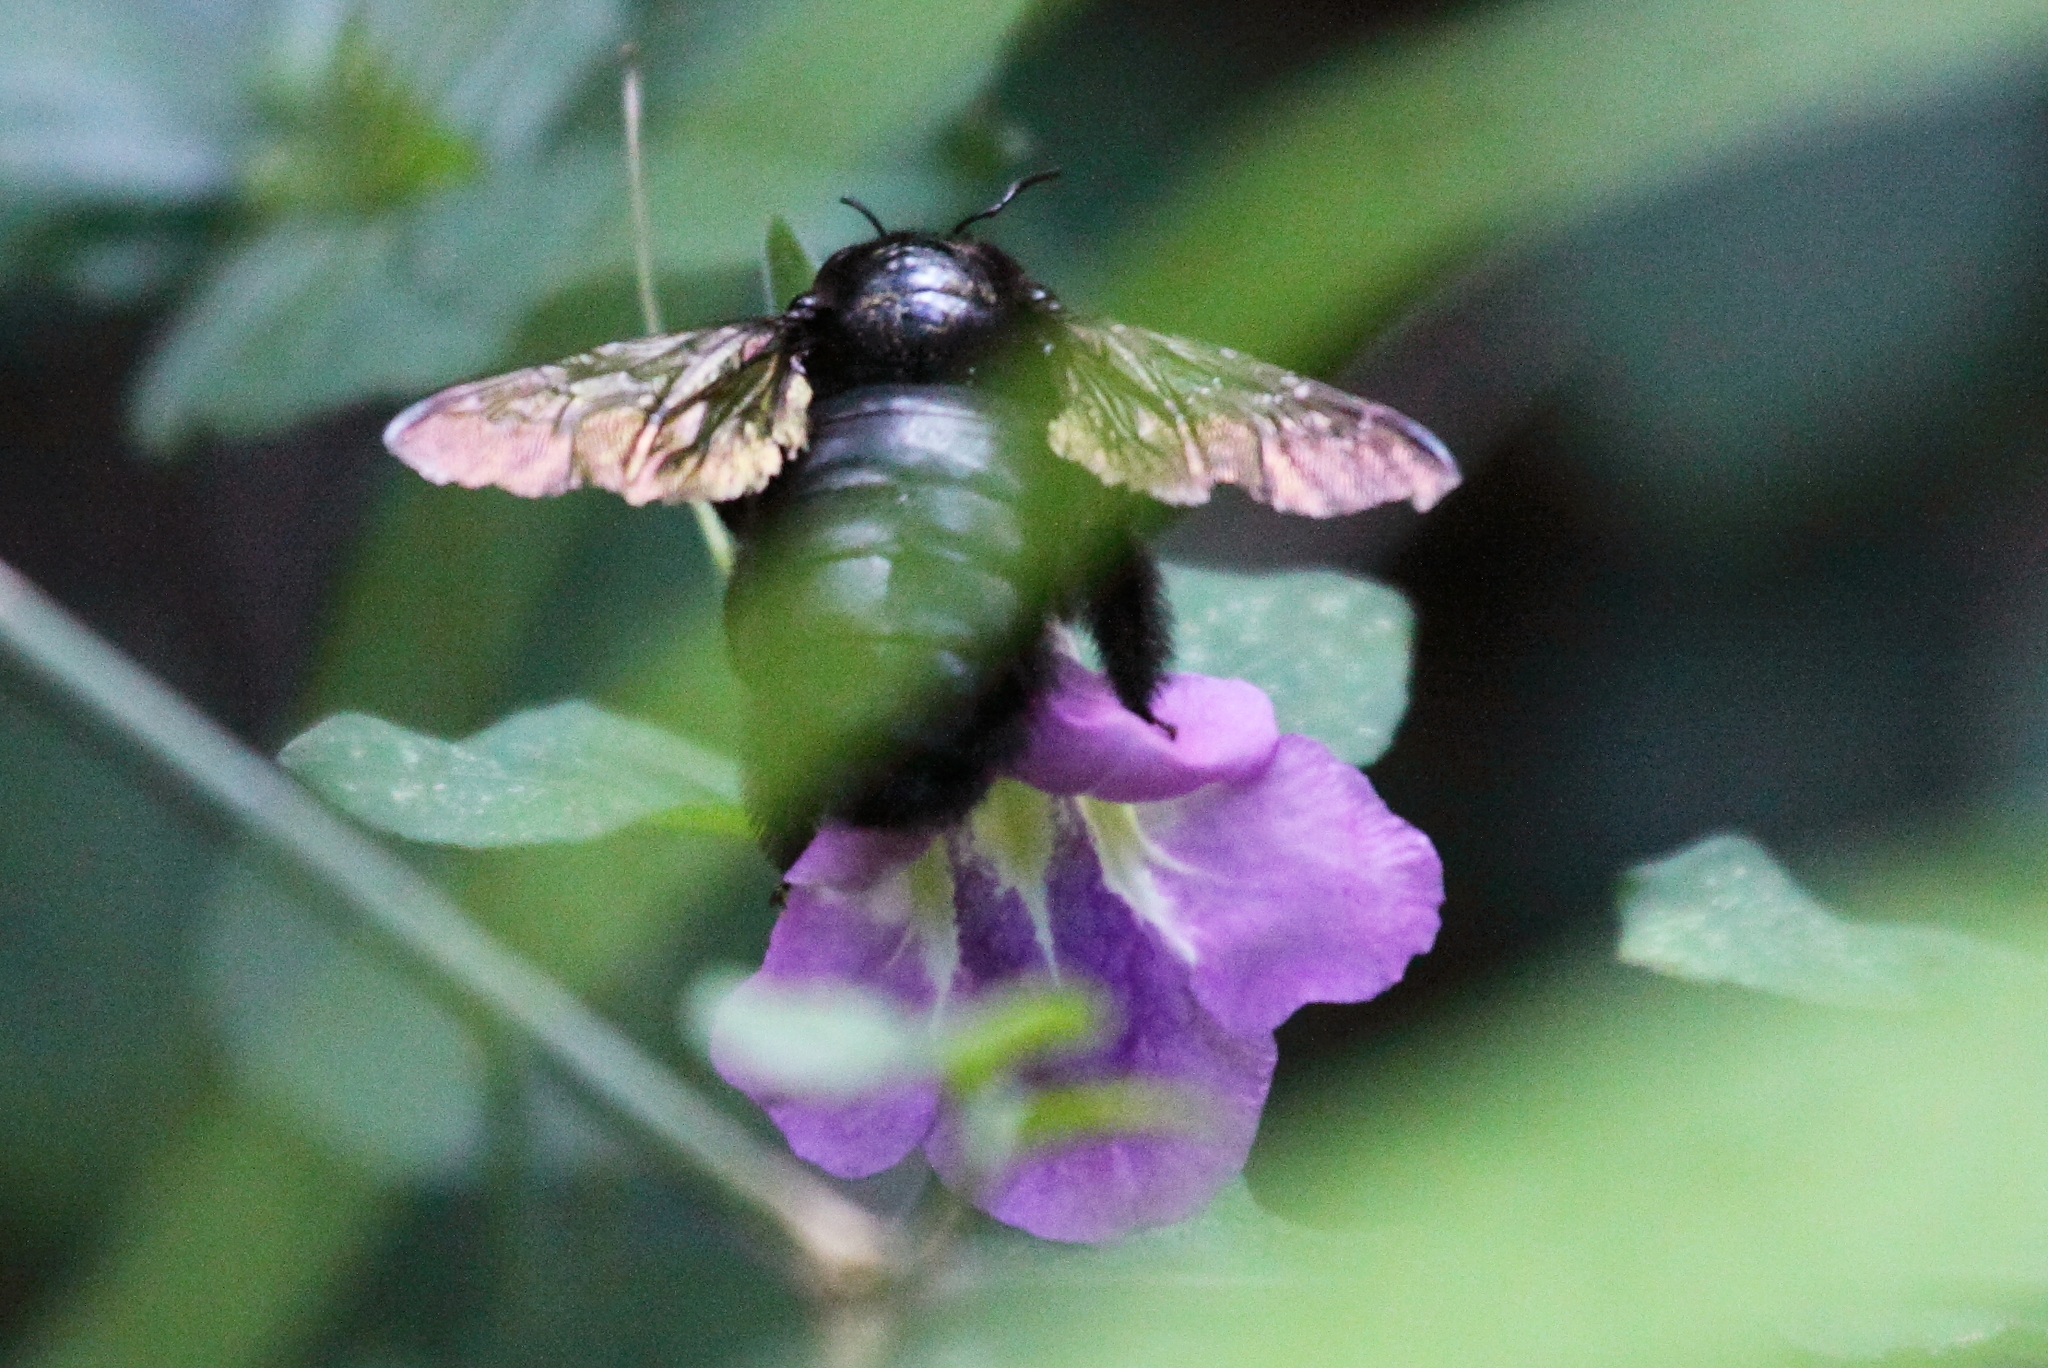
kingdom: Plantae
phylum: Tracheophyta
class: Magnoliopsida
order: Lamiales
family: Acanthaceae
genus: Asystasia
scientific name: Asystasia gangetica
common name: Chinese violet
